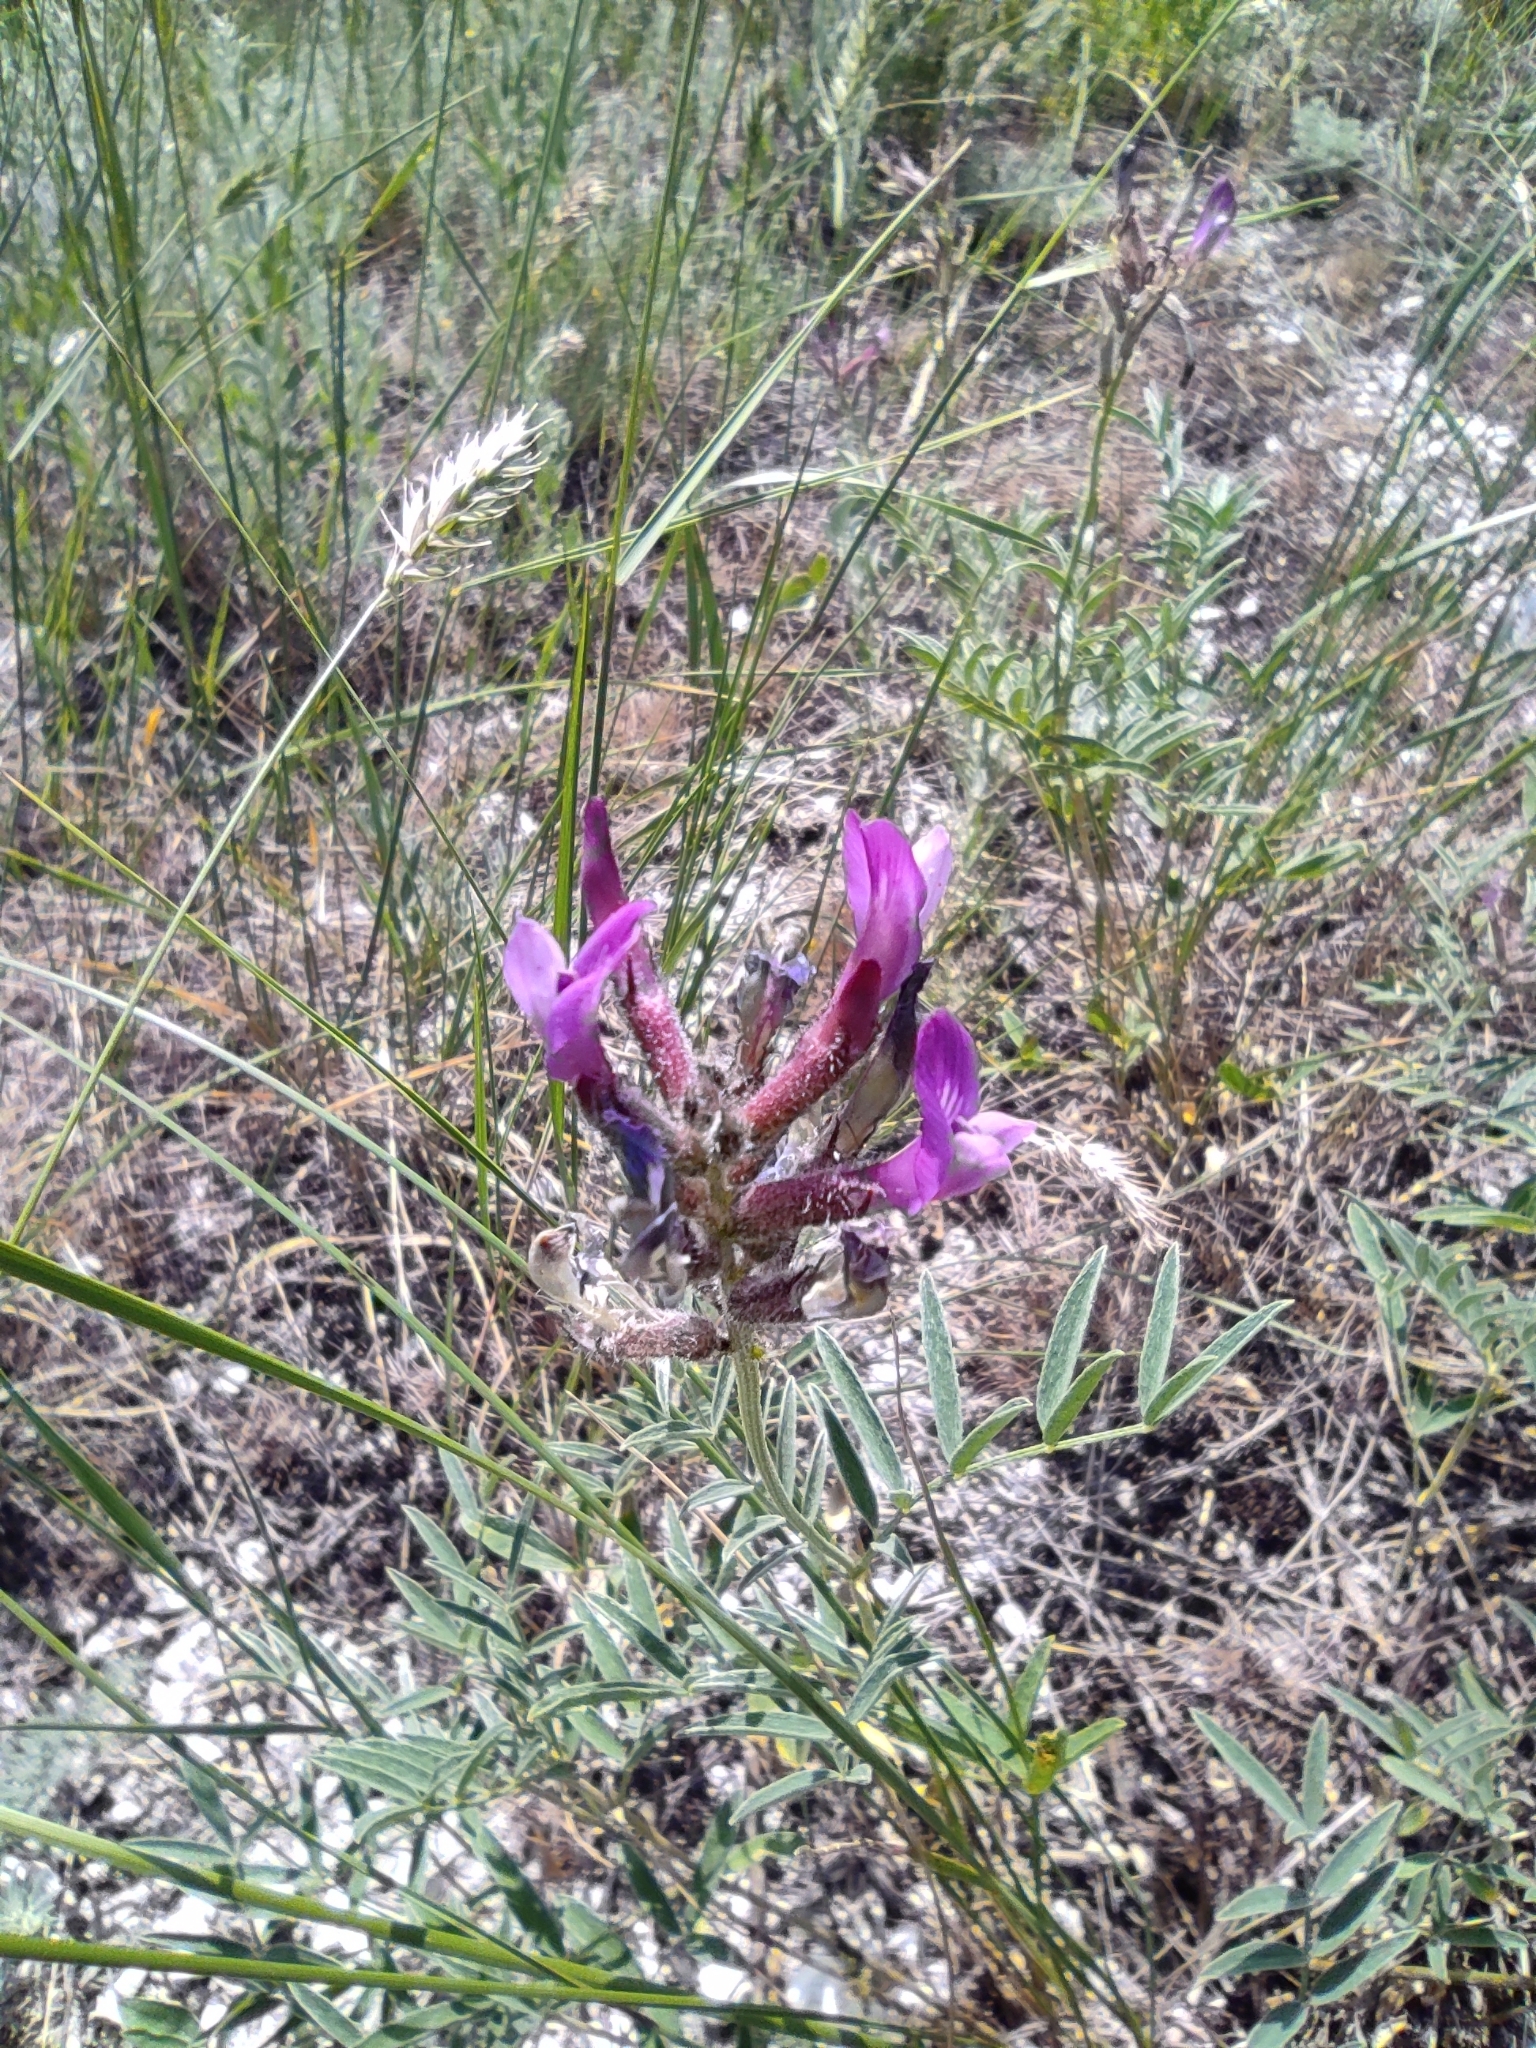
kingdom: Plantae
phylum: Tracheophyta
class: Magnoliopsida
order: Fabales
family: Fabaceae
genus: Astragalus
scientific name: Astragalus varius
